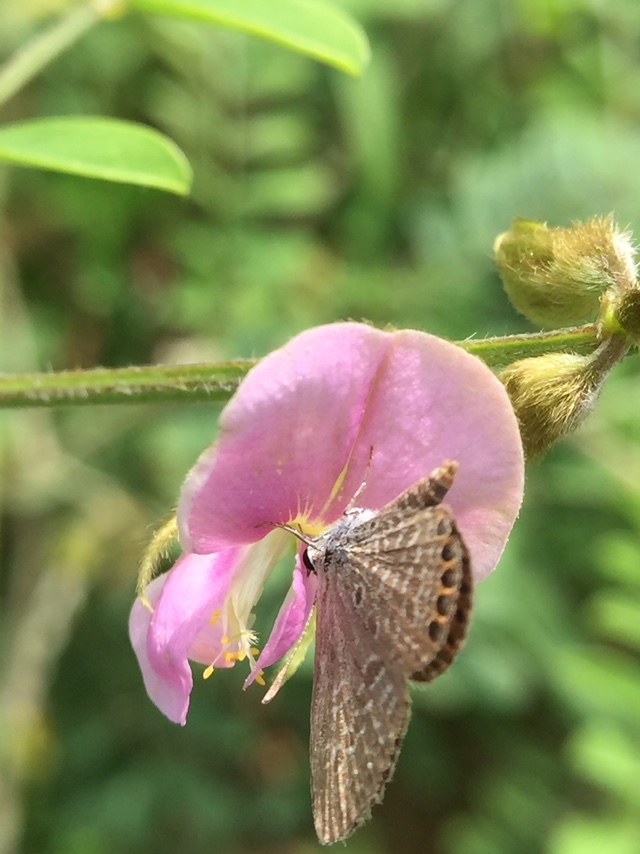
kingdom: Animalia
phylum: Arthropoda
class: Insecta
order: Lepidoptera
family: Lycaenidae
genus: Freyeria
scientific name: Freyeria putli
